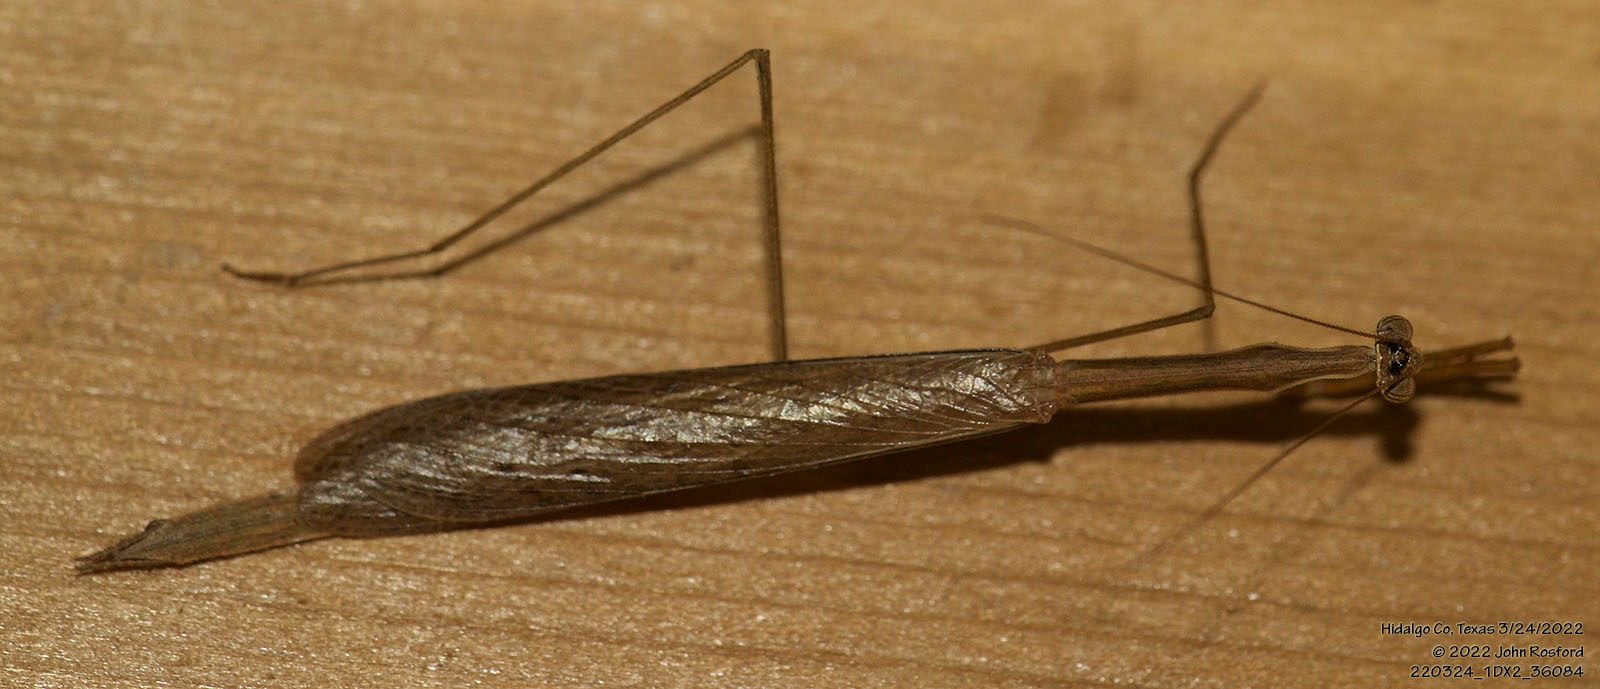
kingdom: Animalia
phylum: Arthropoda
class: Insecta
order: Mantodea
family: Thespidae
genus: Bistanta
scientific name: Bistanta campestris
